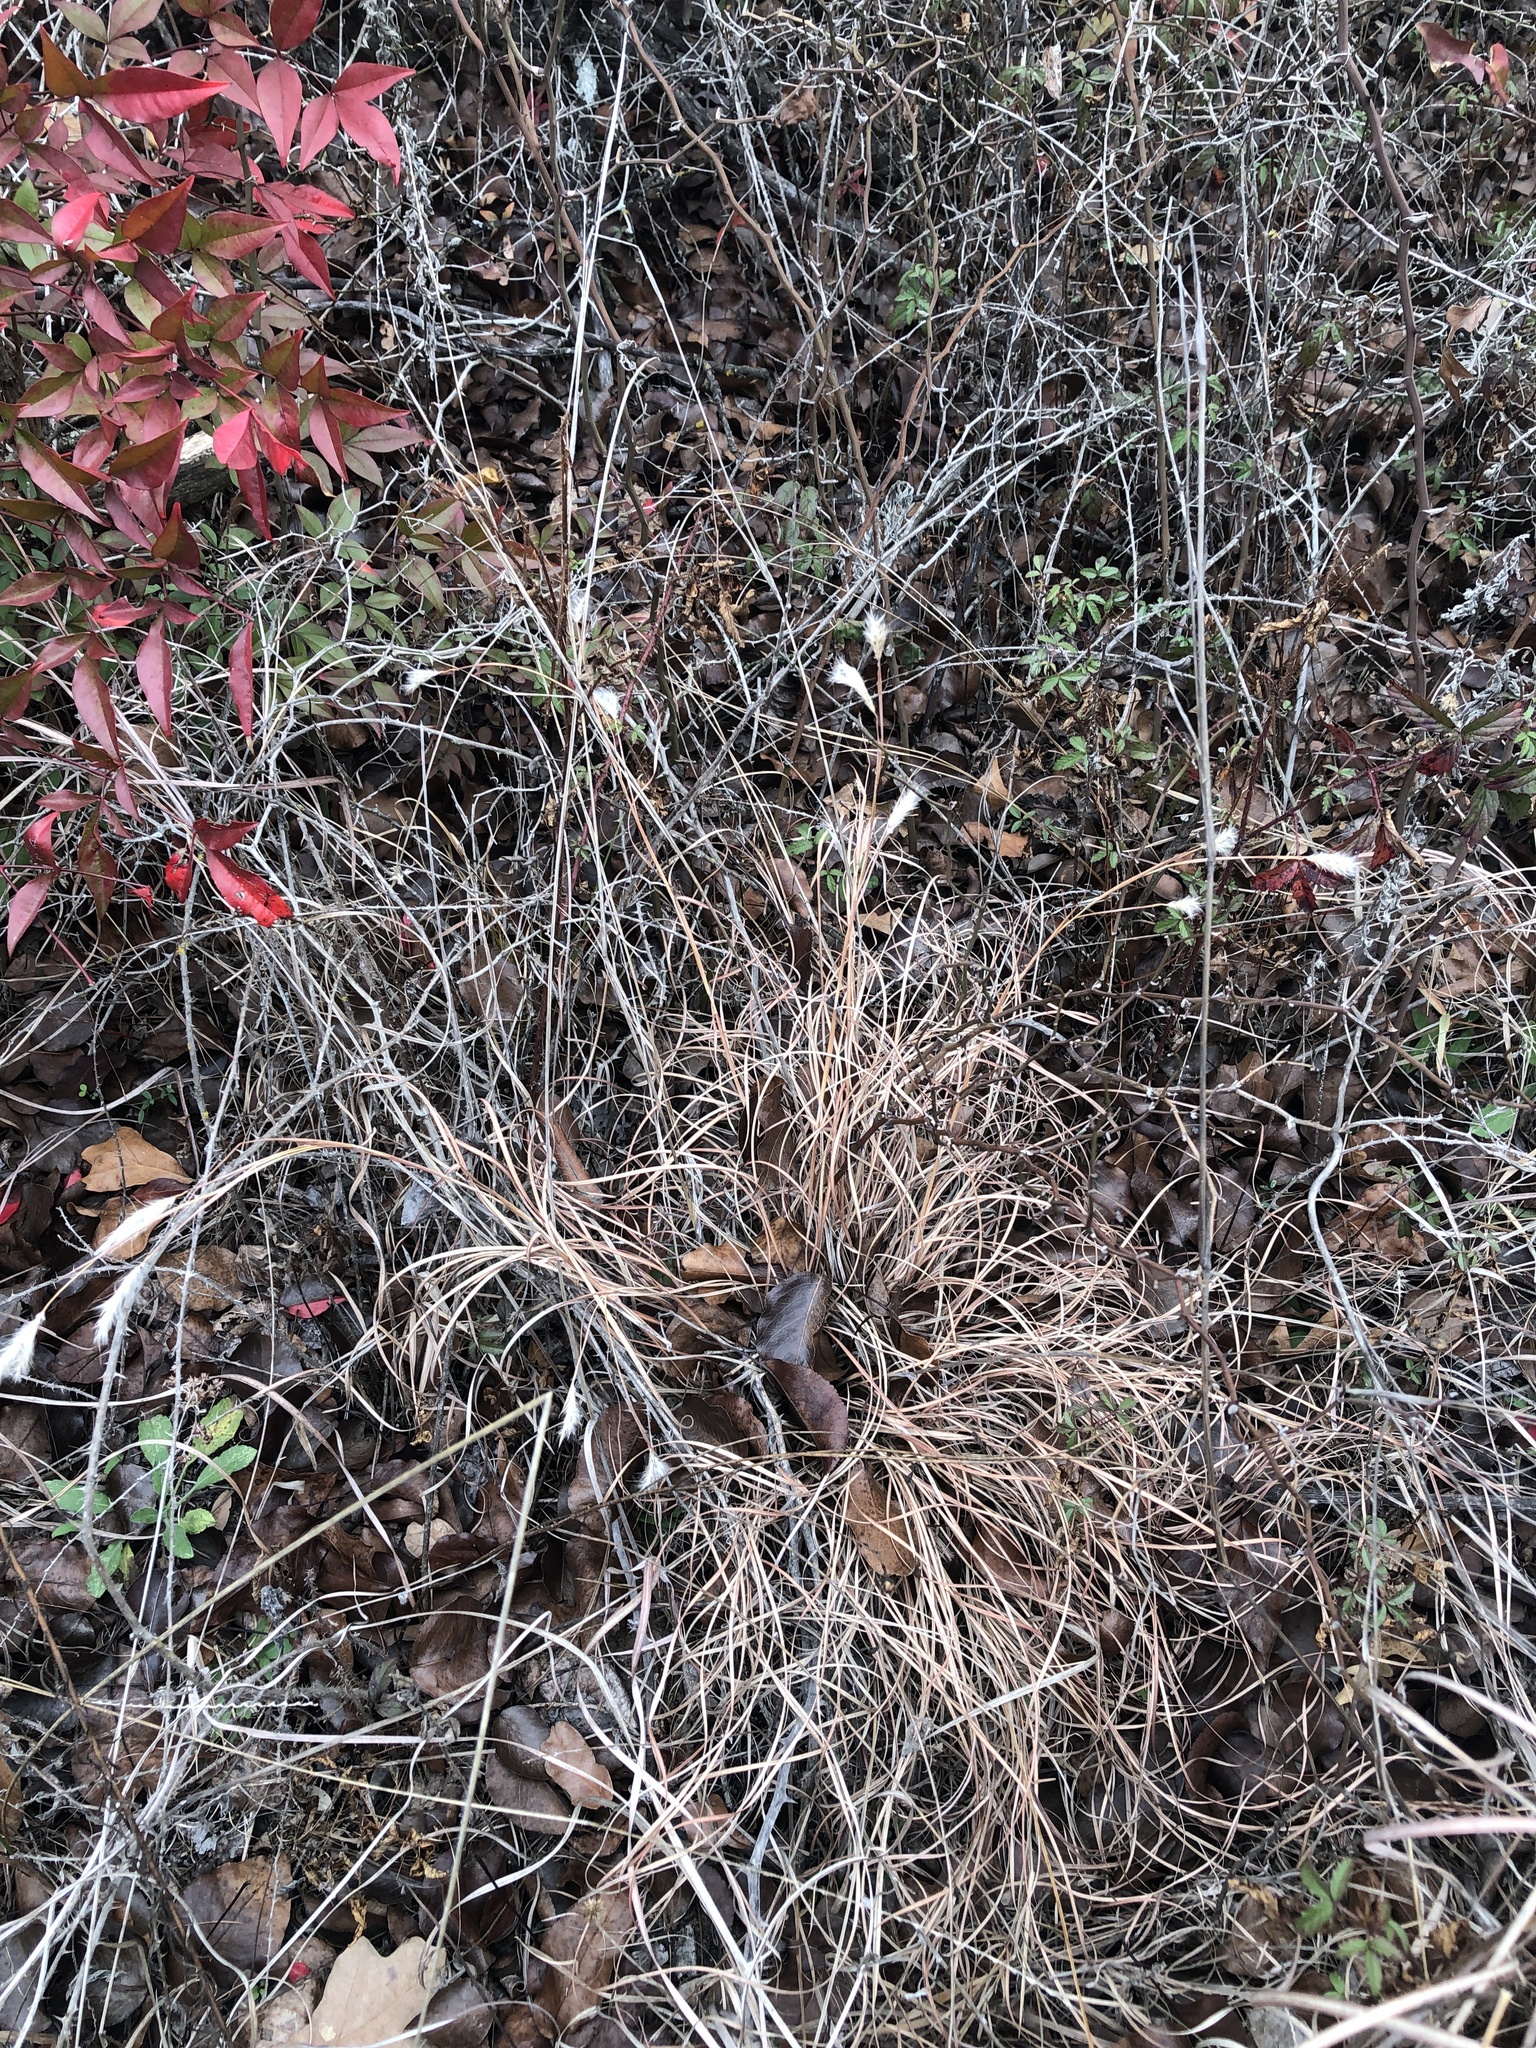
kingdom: Plantae
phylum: Tracheophyta
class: Liliopsida
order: Poales
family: Poaceae
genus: Andropogon
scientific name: Andropogon ternarius
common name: Split bluestem
